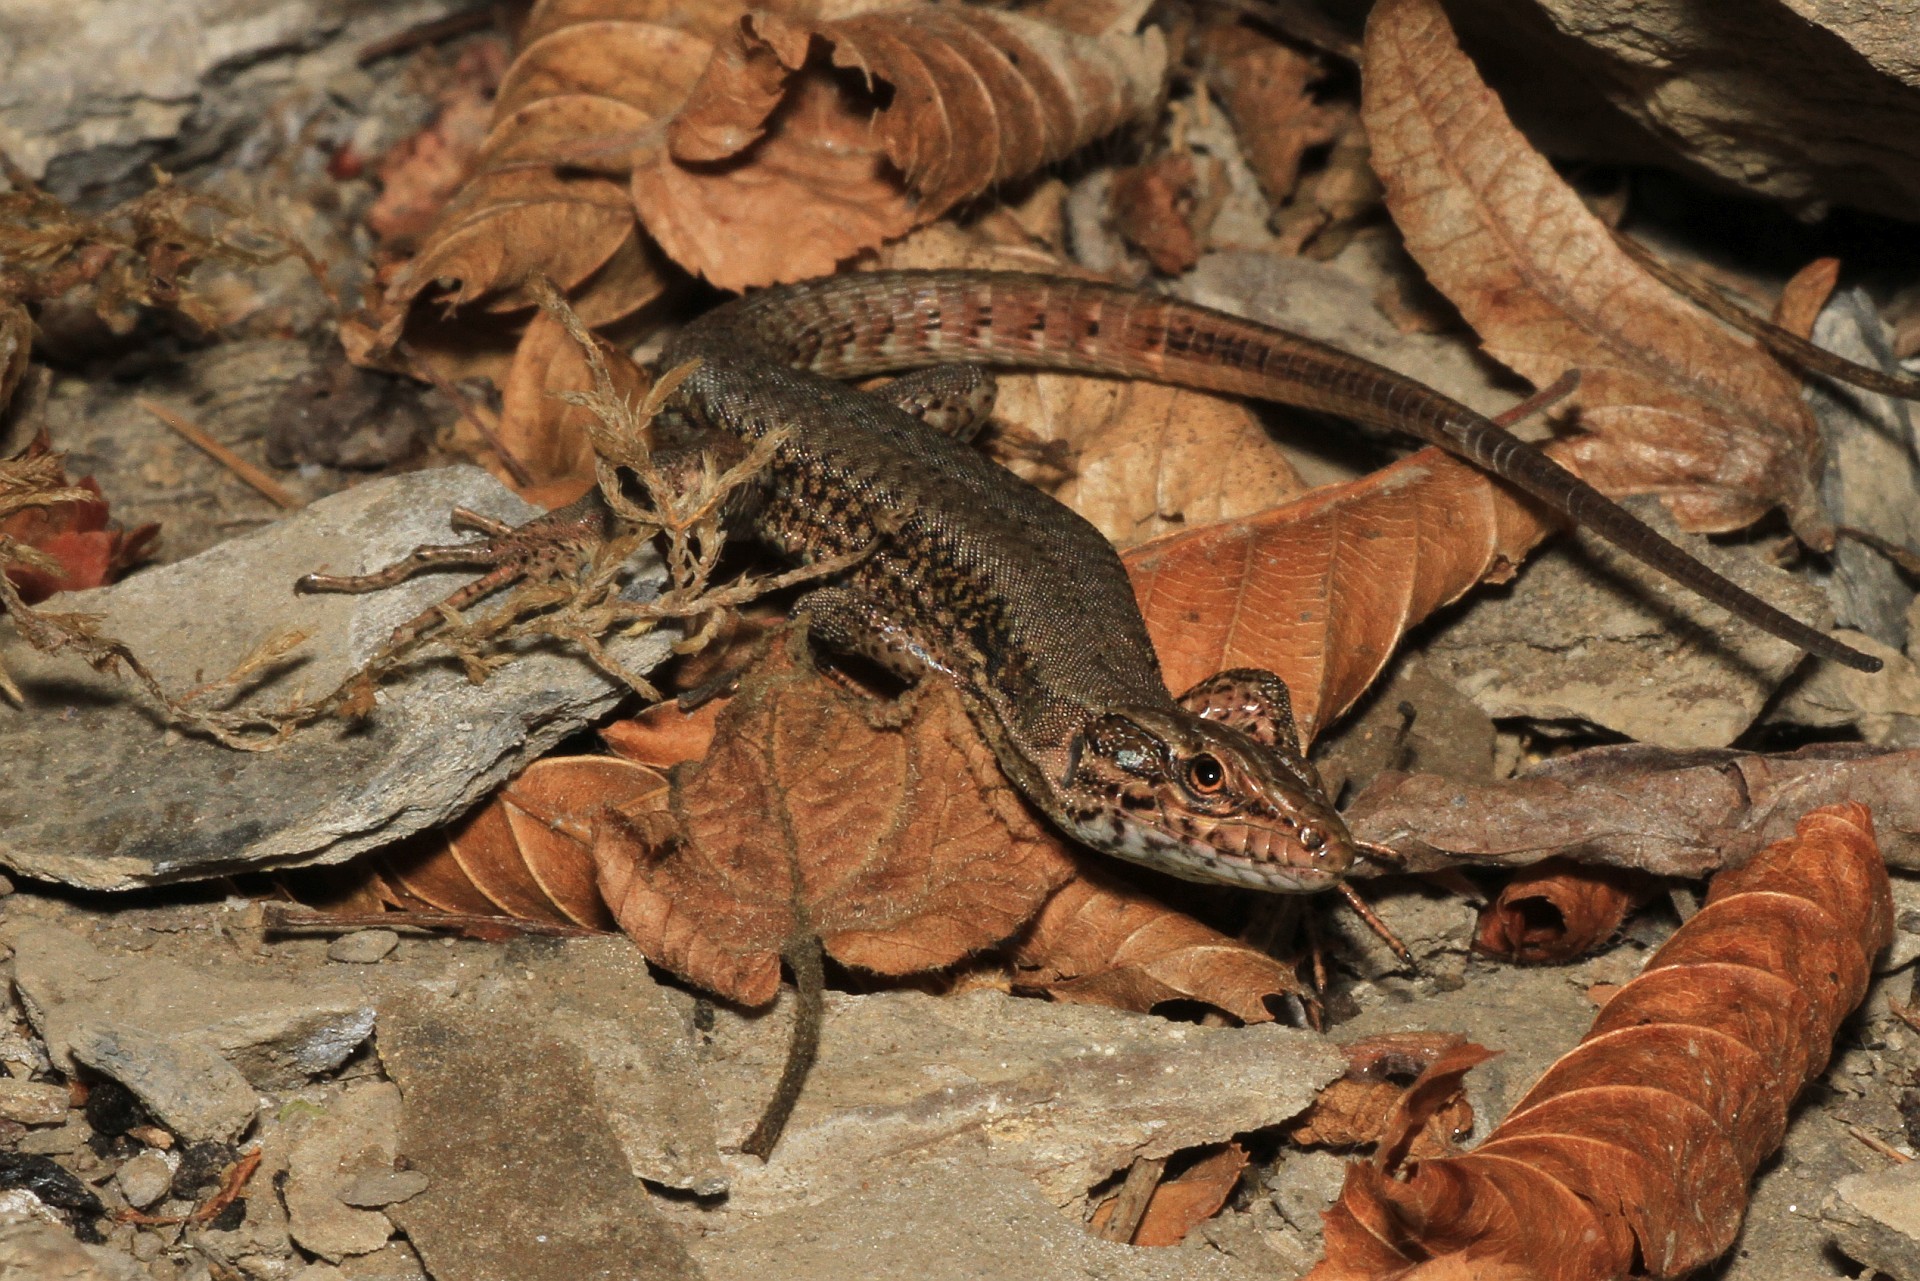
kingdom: Animalia
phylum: Chordata
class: Squamata
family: Lacertidae
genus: Podarcis
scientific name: Podarcis muralis
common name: Common wall lizard
